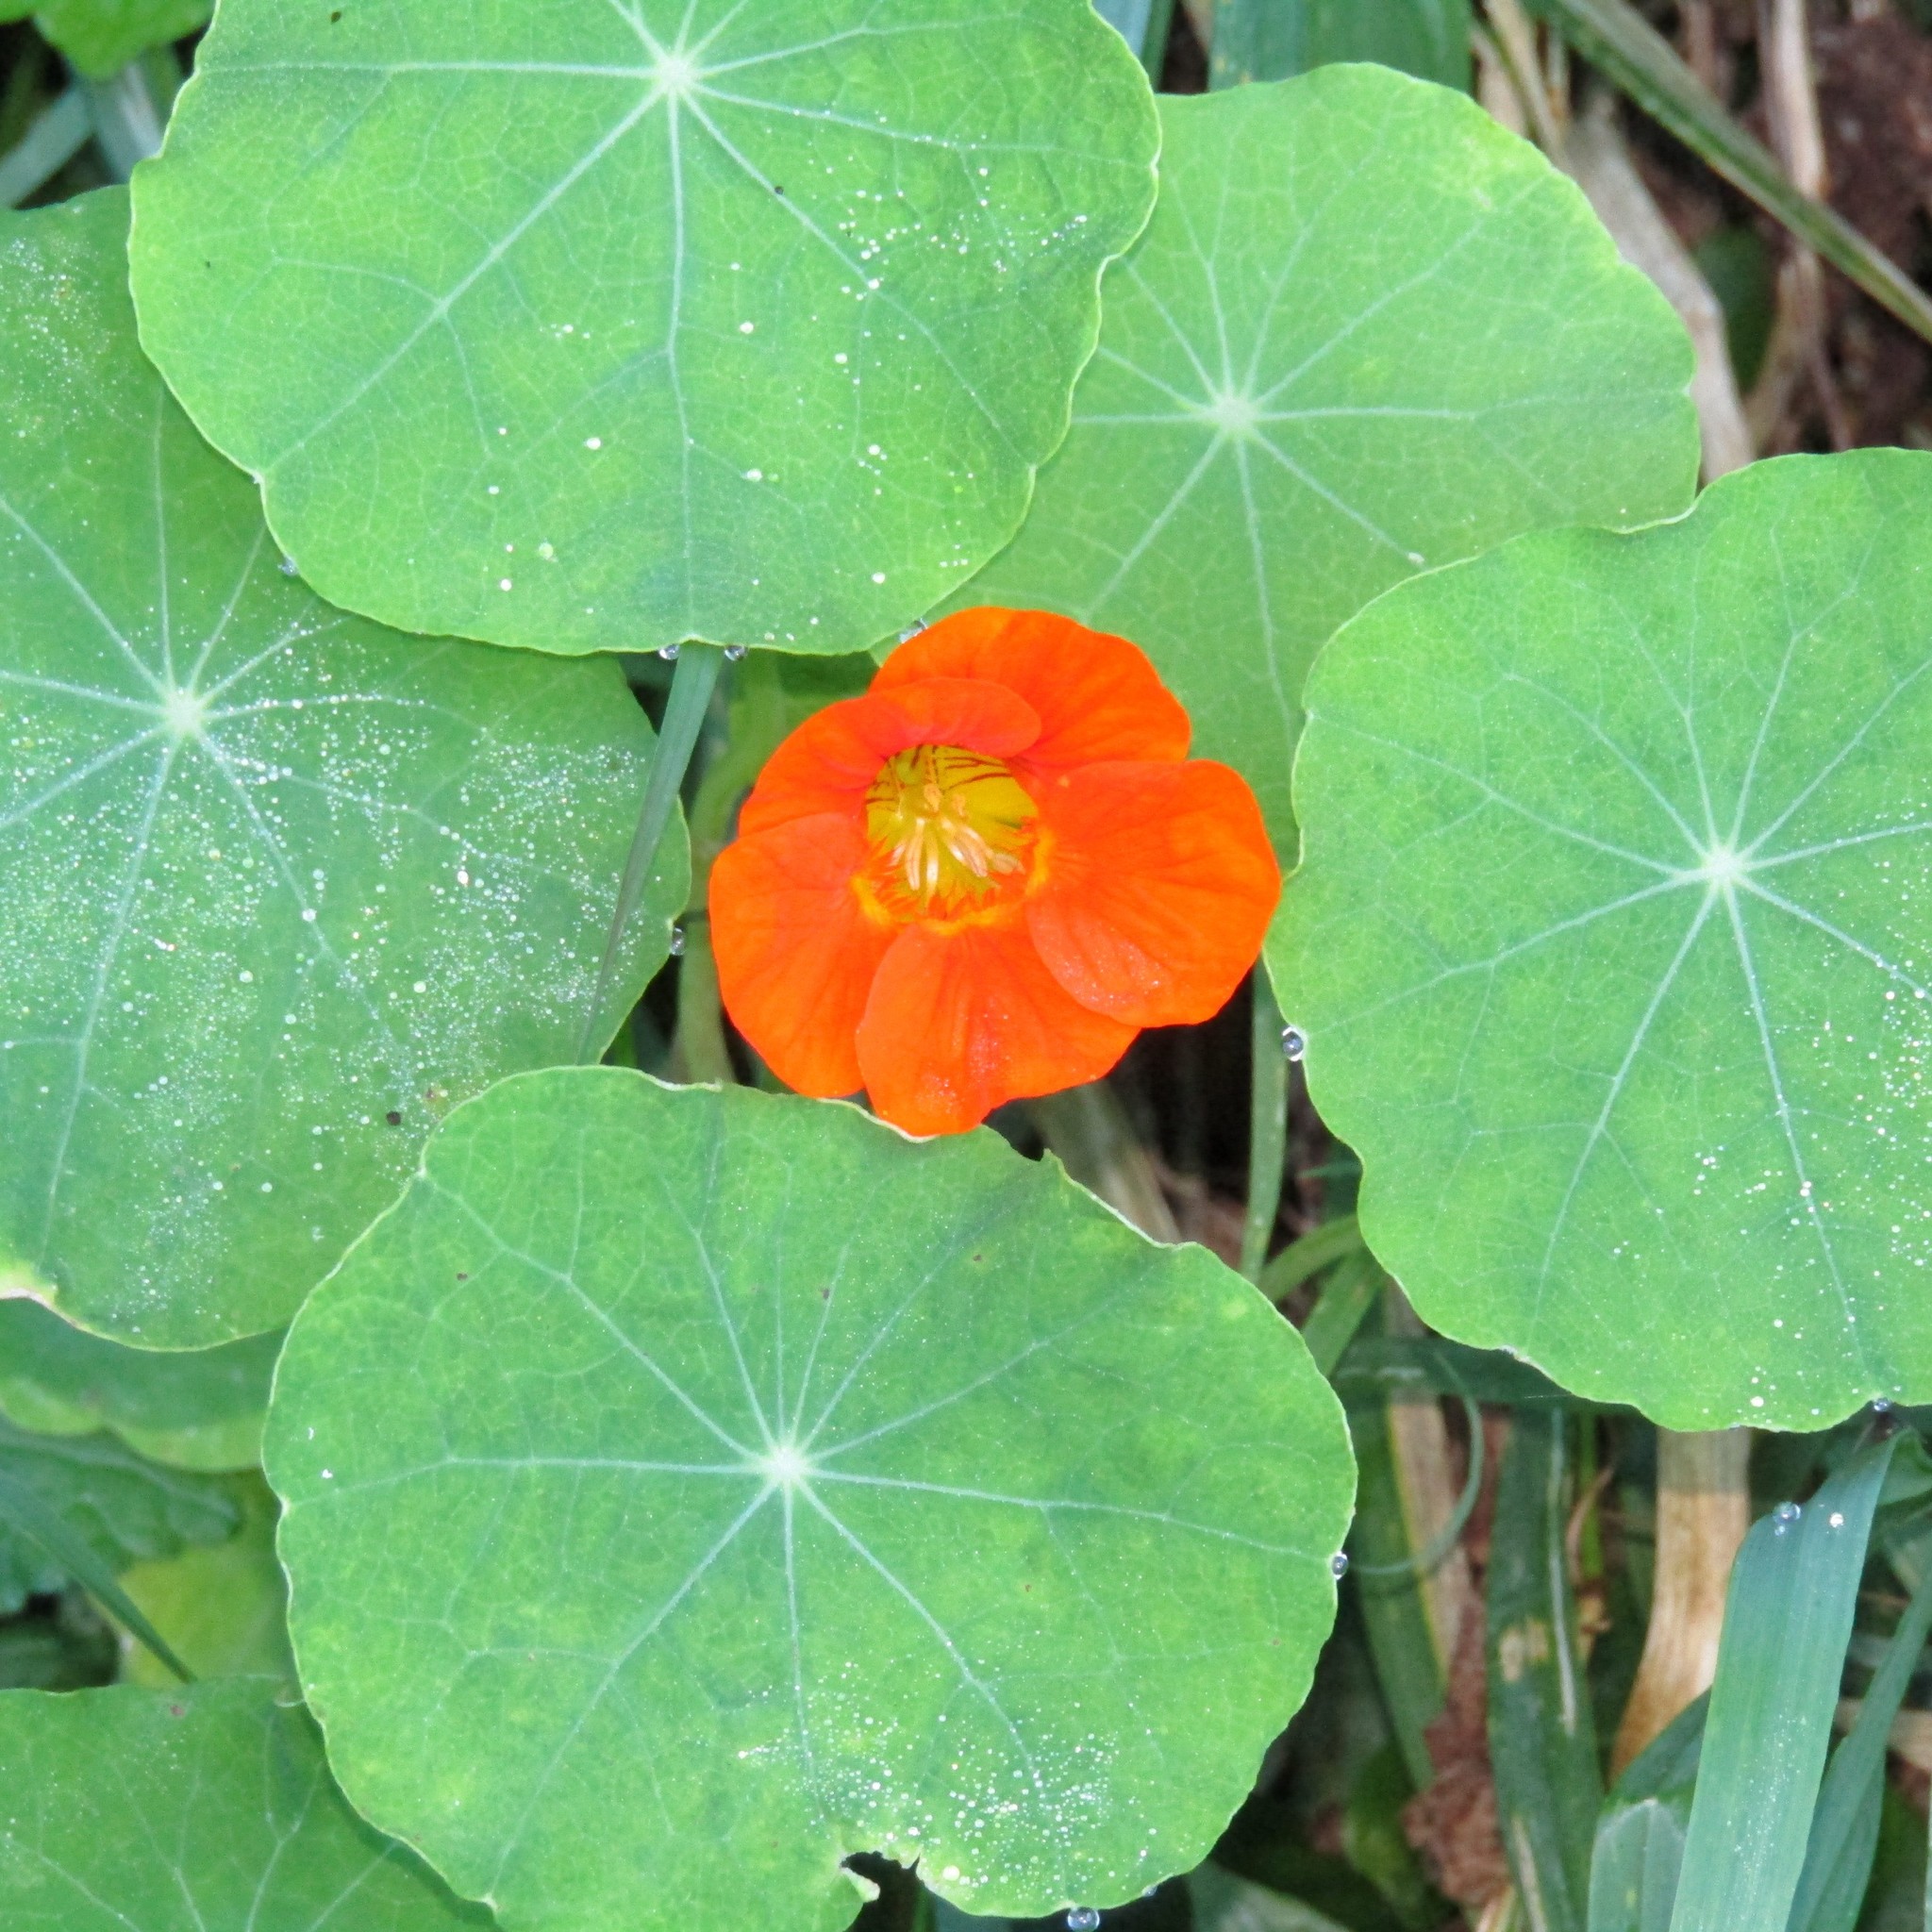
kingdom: Plantae
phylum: Tracheophyta
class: Magnoliopsida
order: Brassicales
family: Tropaeolaceae
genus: Tropaeolum
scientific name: Tropaeolum majus
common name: Nasturtium
